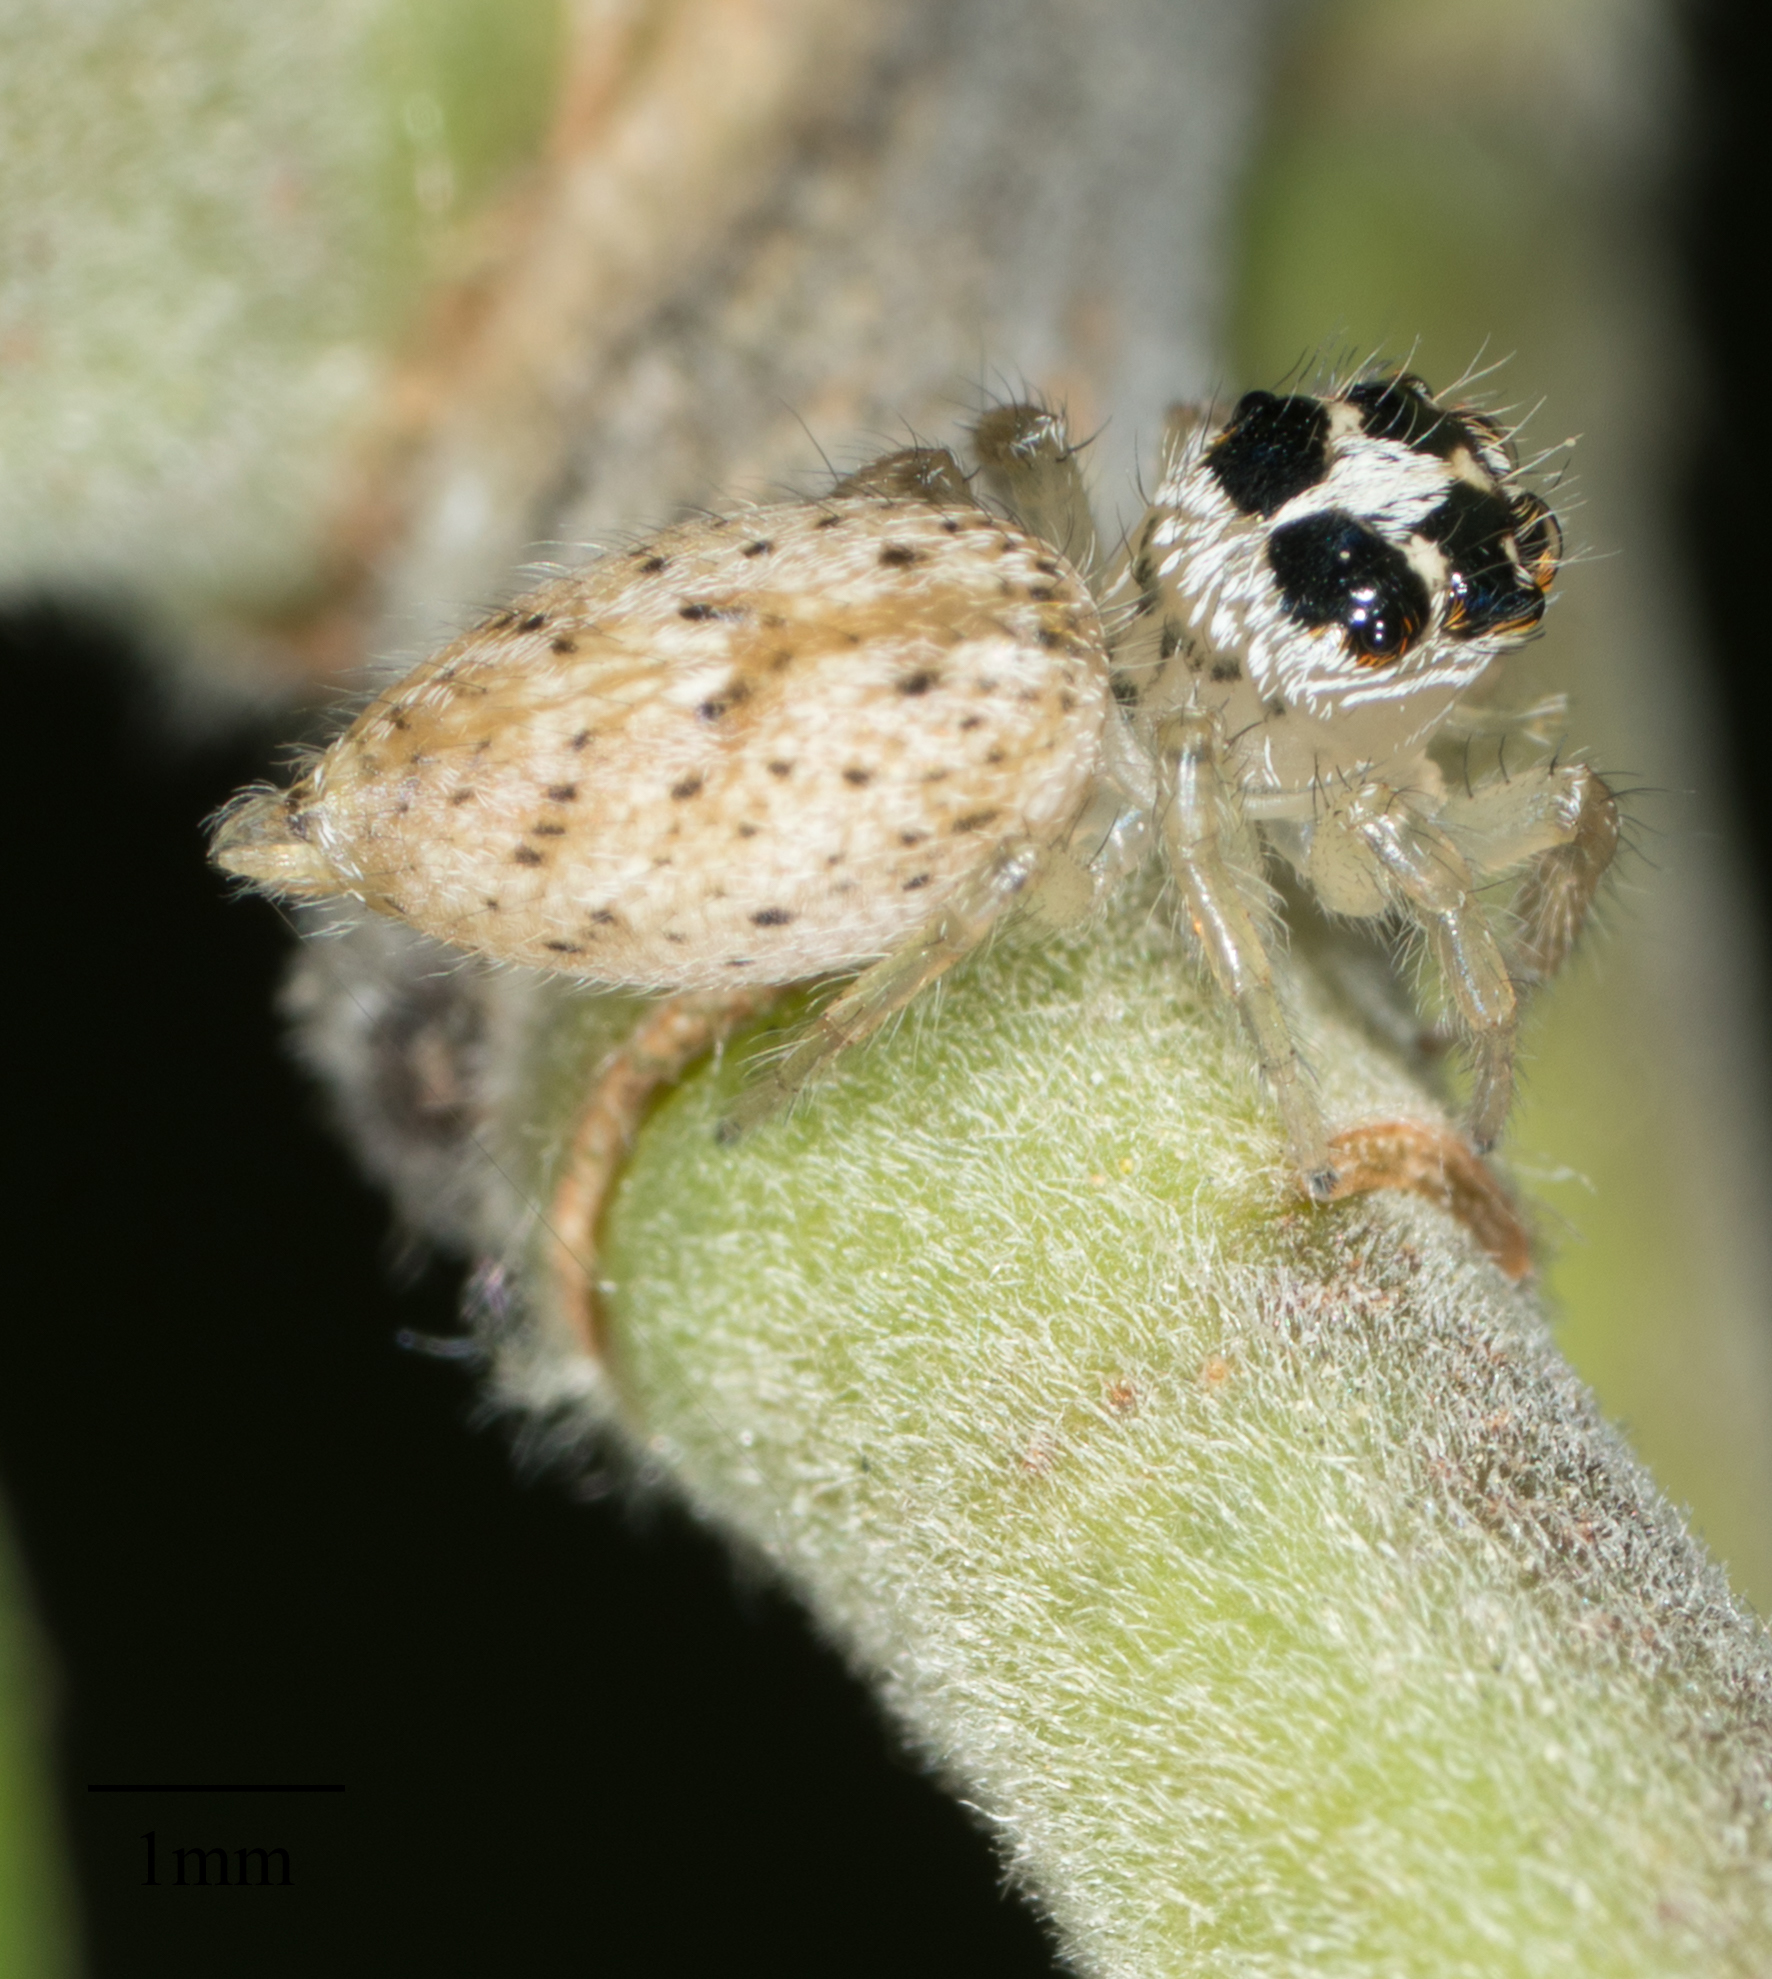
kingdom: Animalia
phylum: Arthropoda
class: Arachnida
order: Araneae
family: Salticidae
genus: Colonus
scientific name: Colonus hesperus
